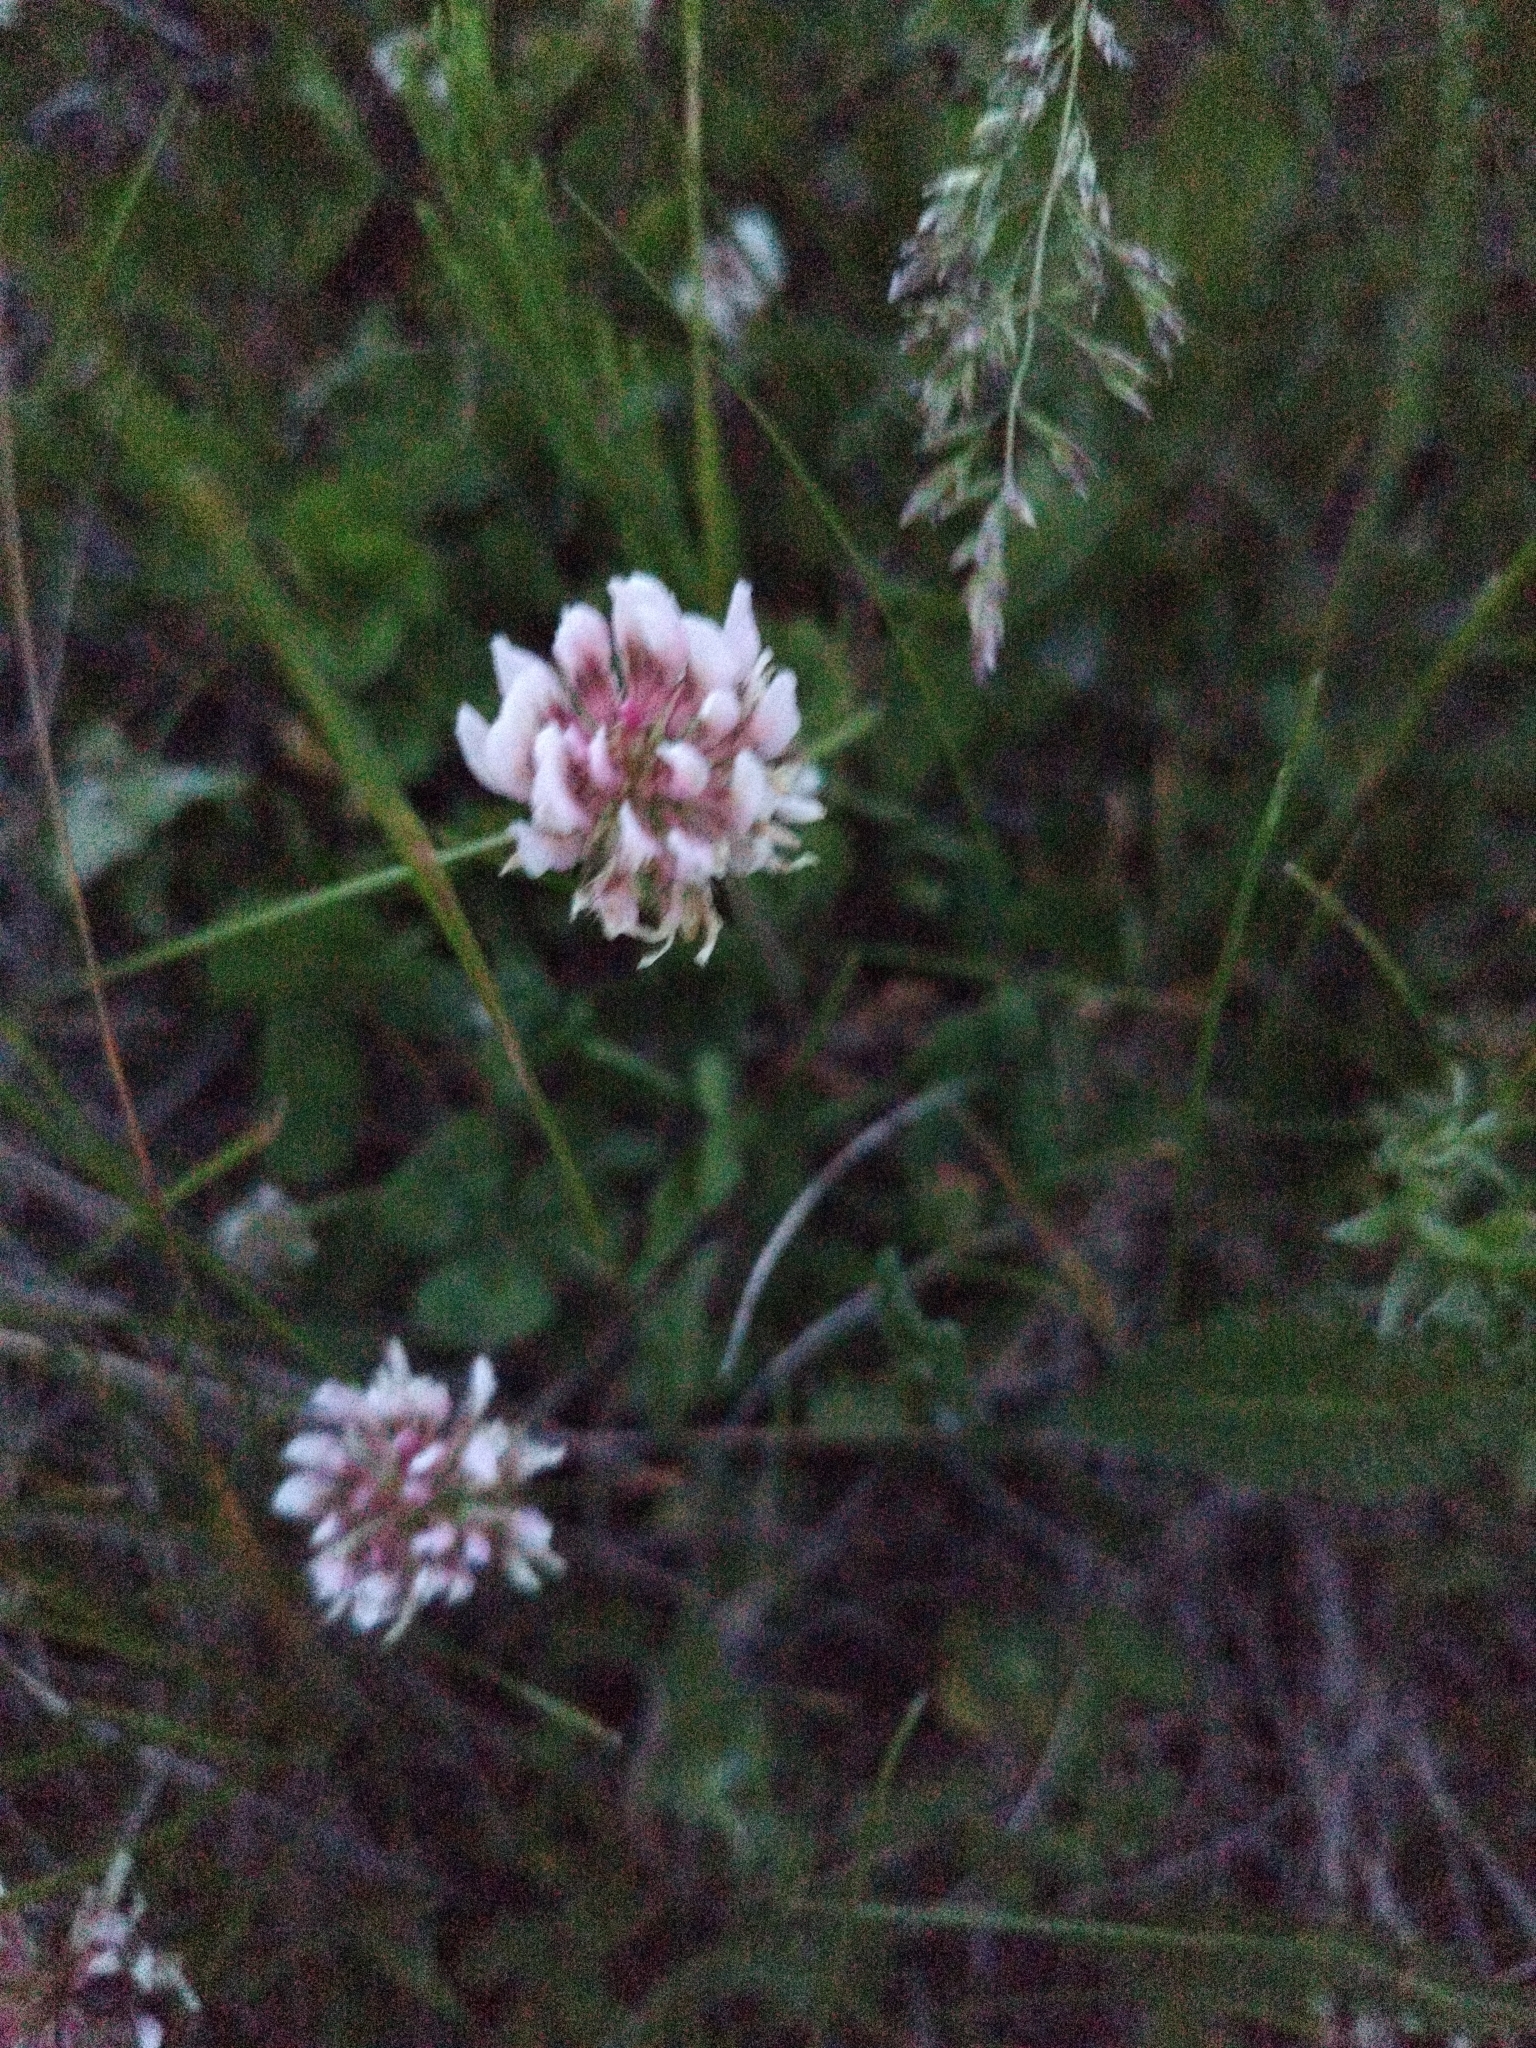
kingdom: Plantae
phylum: Tracheophyta
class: Magnoliopsida
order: Fabales
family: Fabaceae
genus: Trifolium
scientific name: Trifolium repens
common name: White clover
